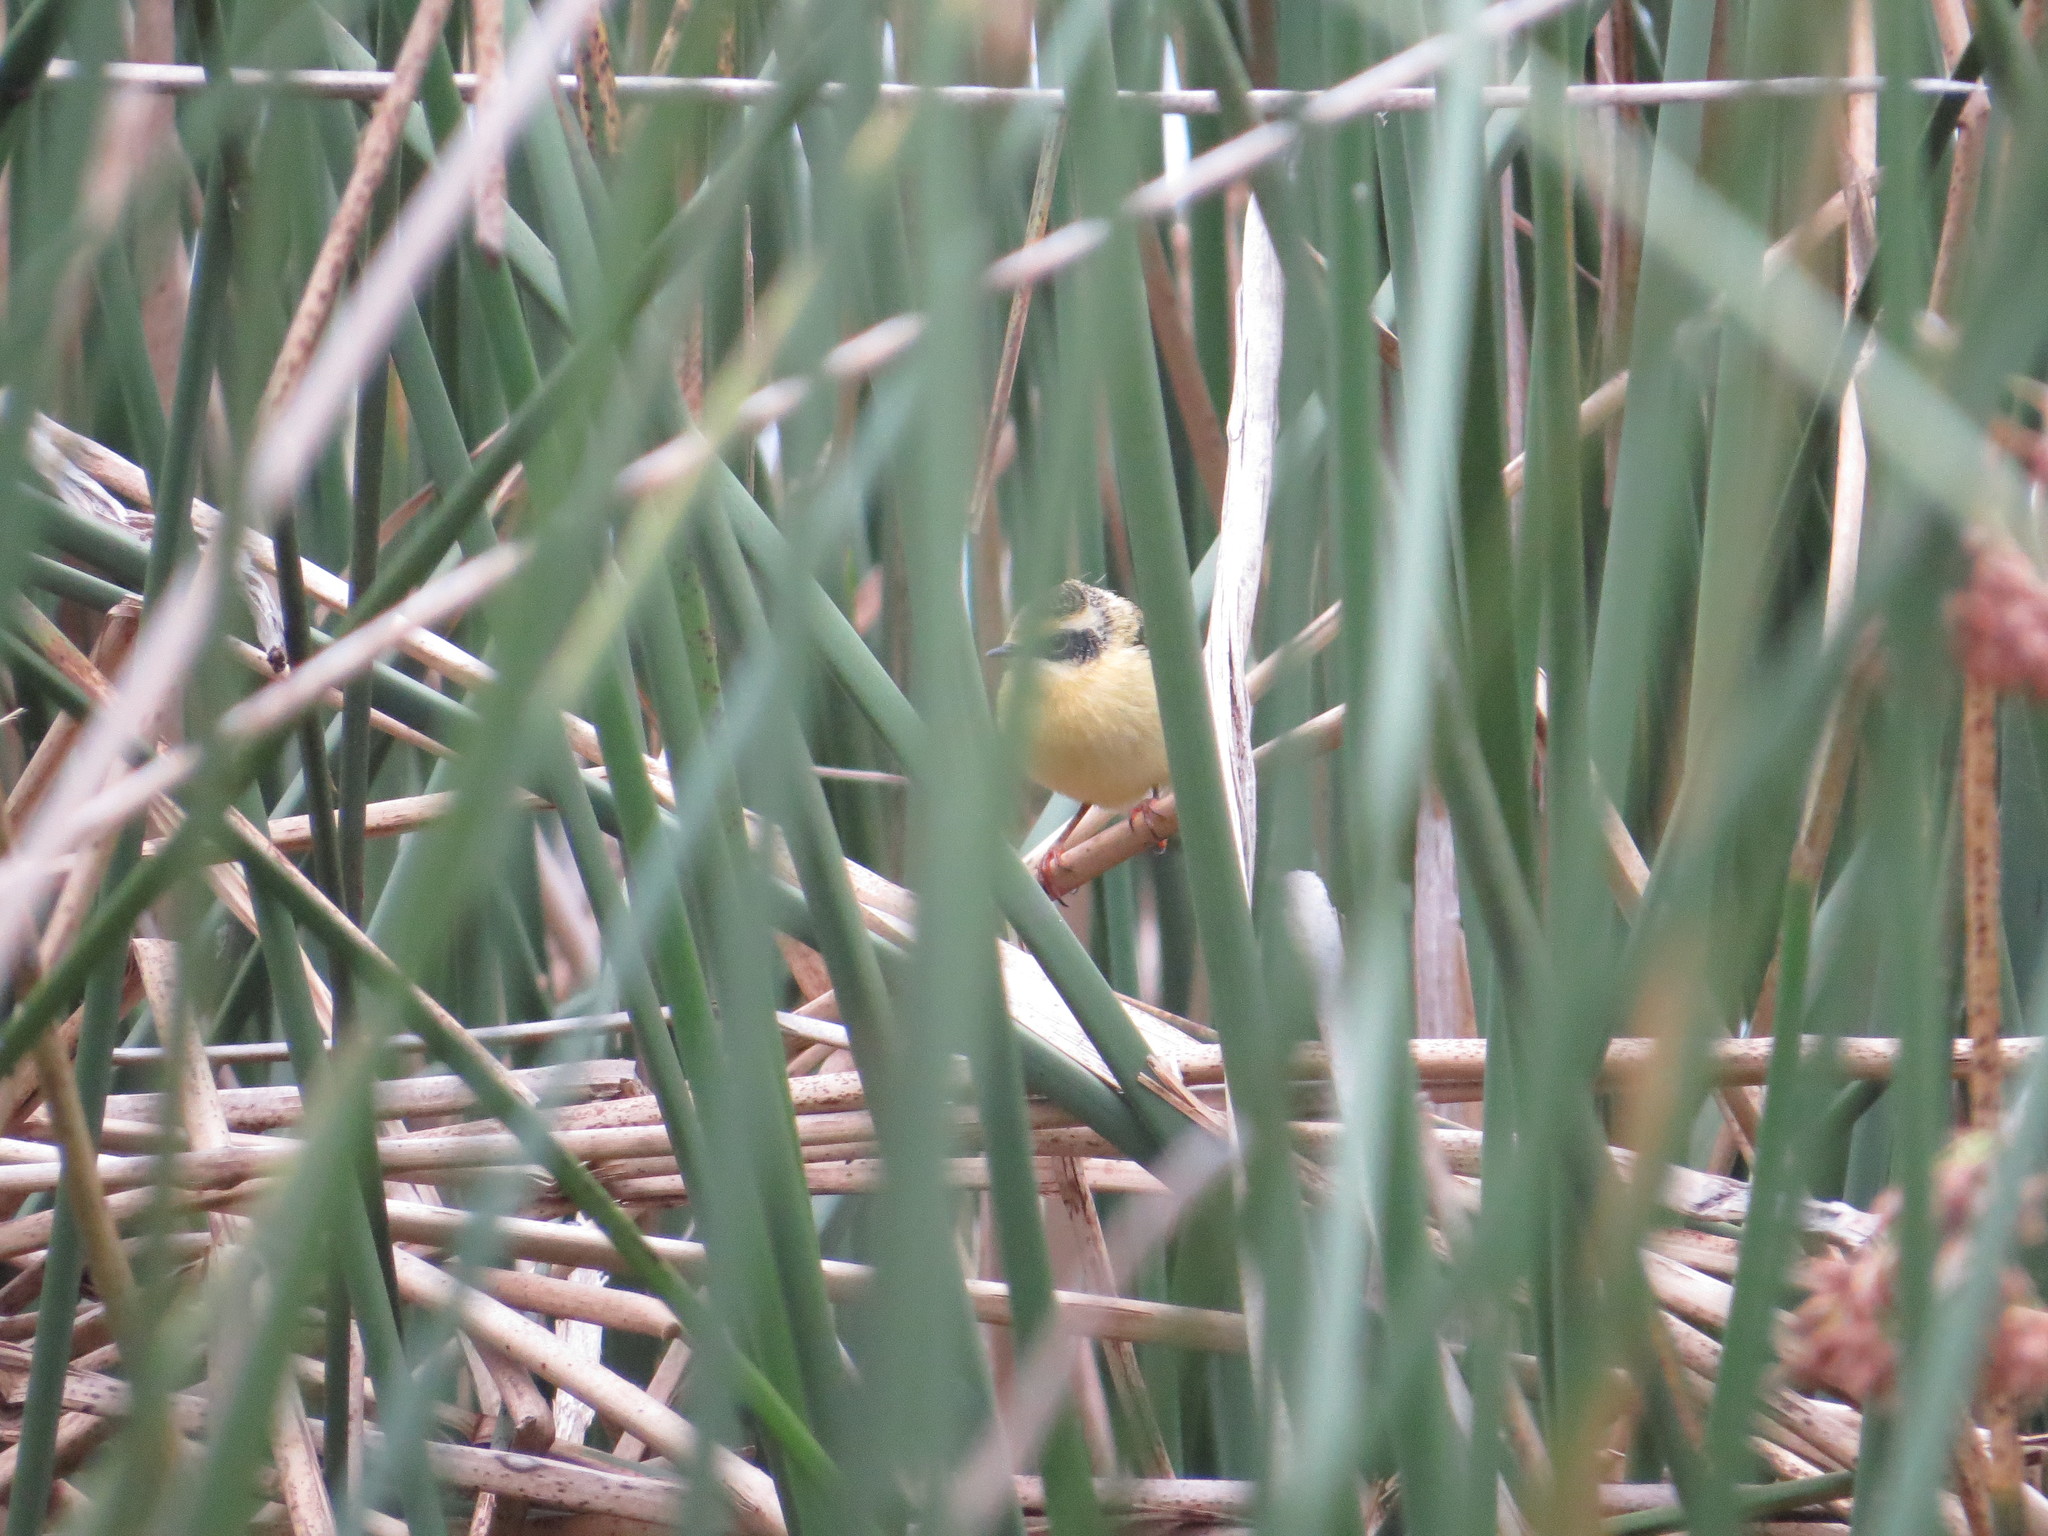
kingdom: Animalia
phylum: Chordata
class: Aves
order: Passeriformes
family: Tyrannidae
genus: Tachuris
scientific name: Tachuris rubrigastra
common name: Many-colored rush tyrant
